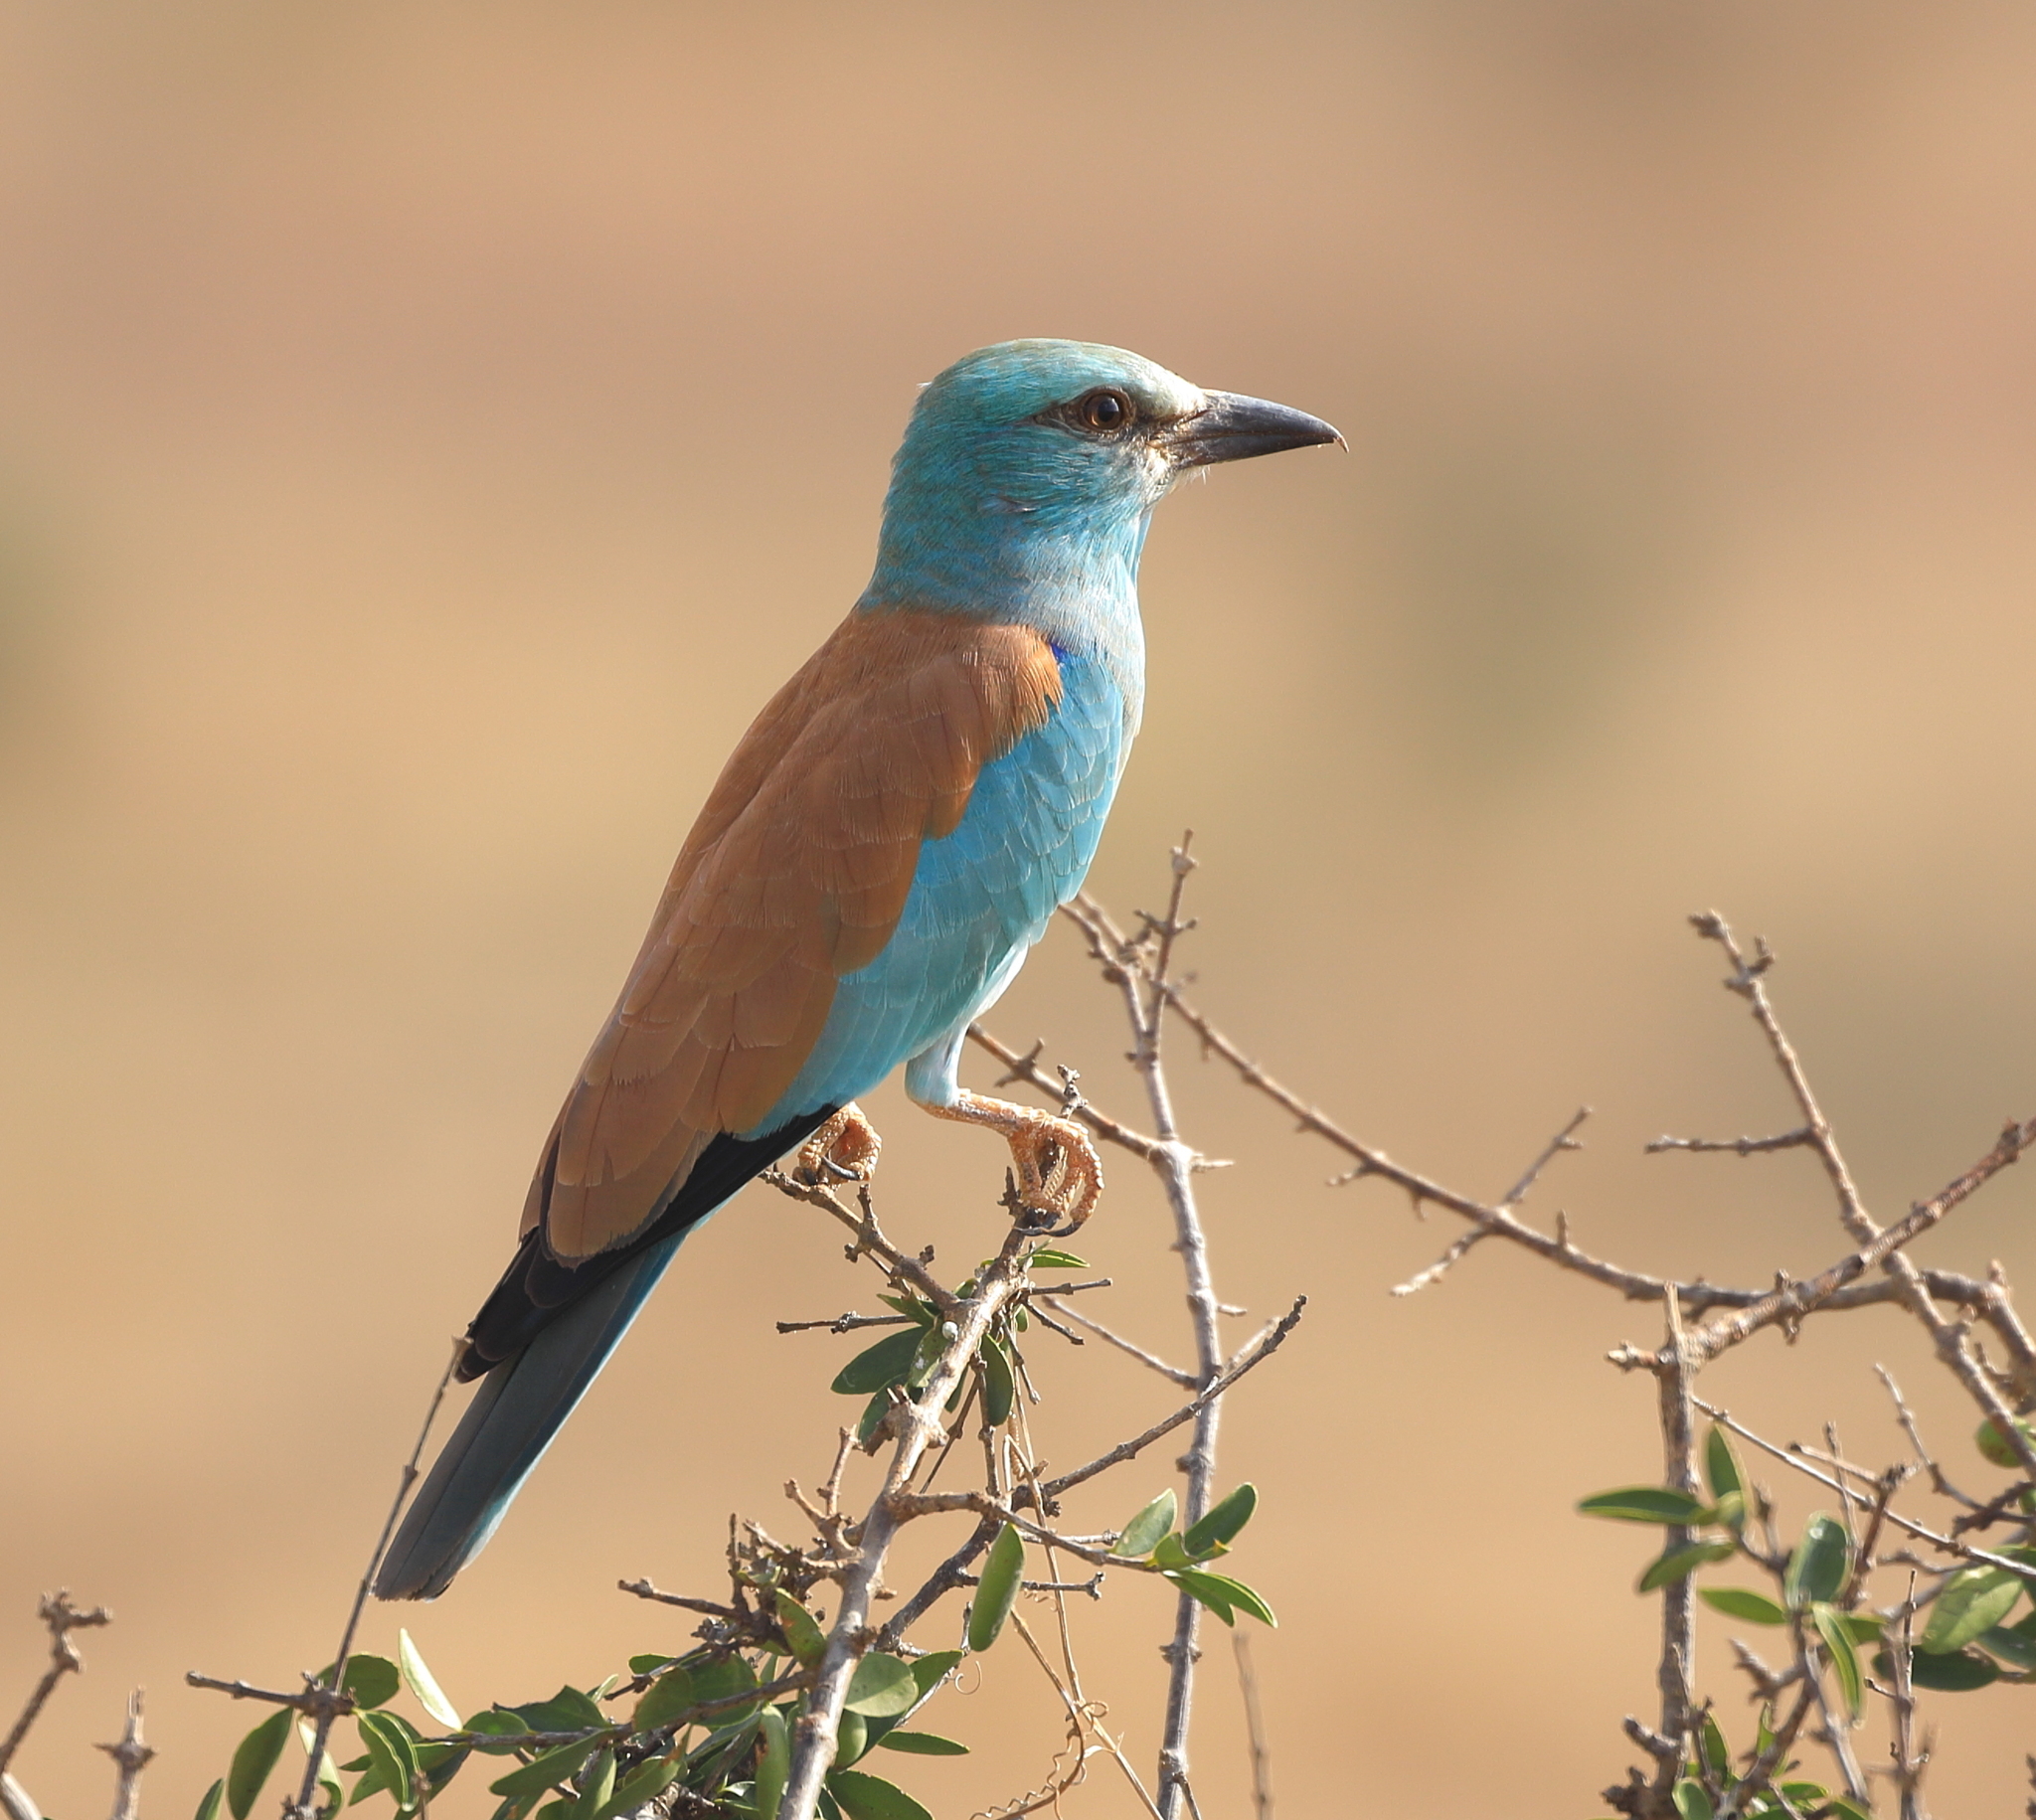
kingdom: Animalia
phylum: Chordata
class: Aves
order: Coraciiformes
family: Coraciidae
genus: Coracias
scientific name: Coracias garrulus
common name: European roller
